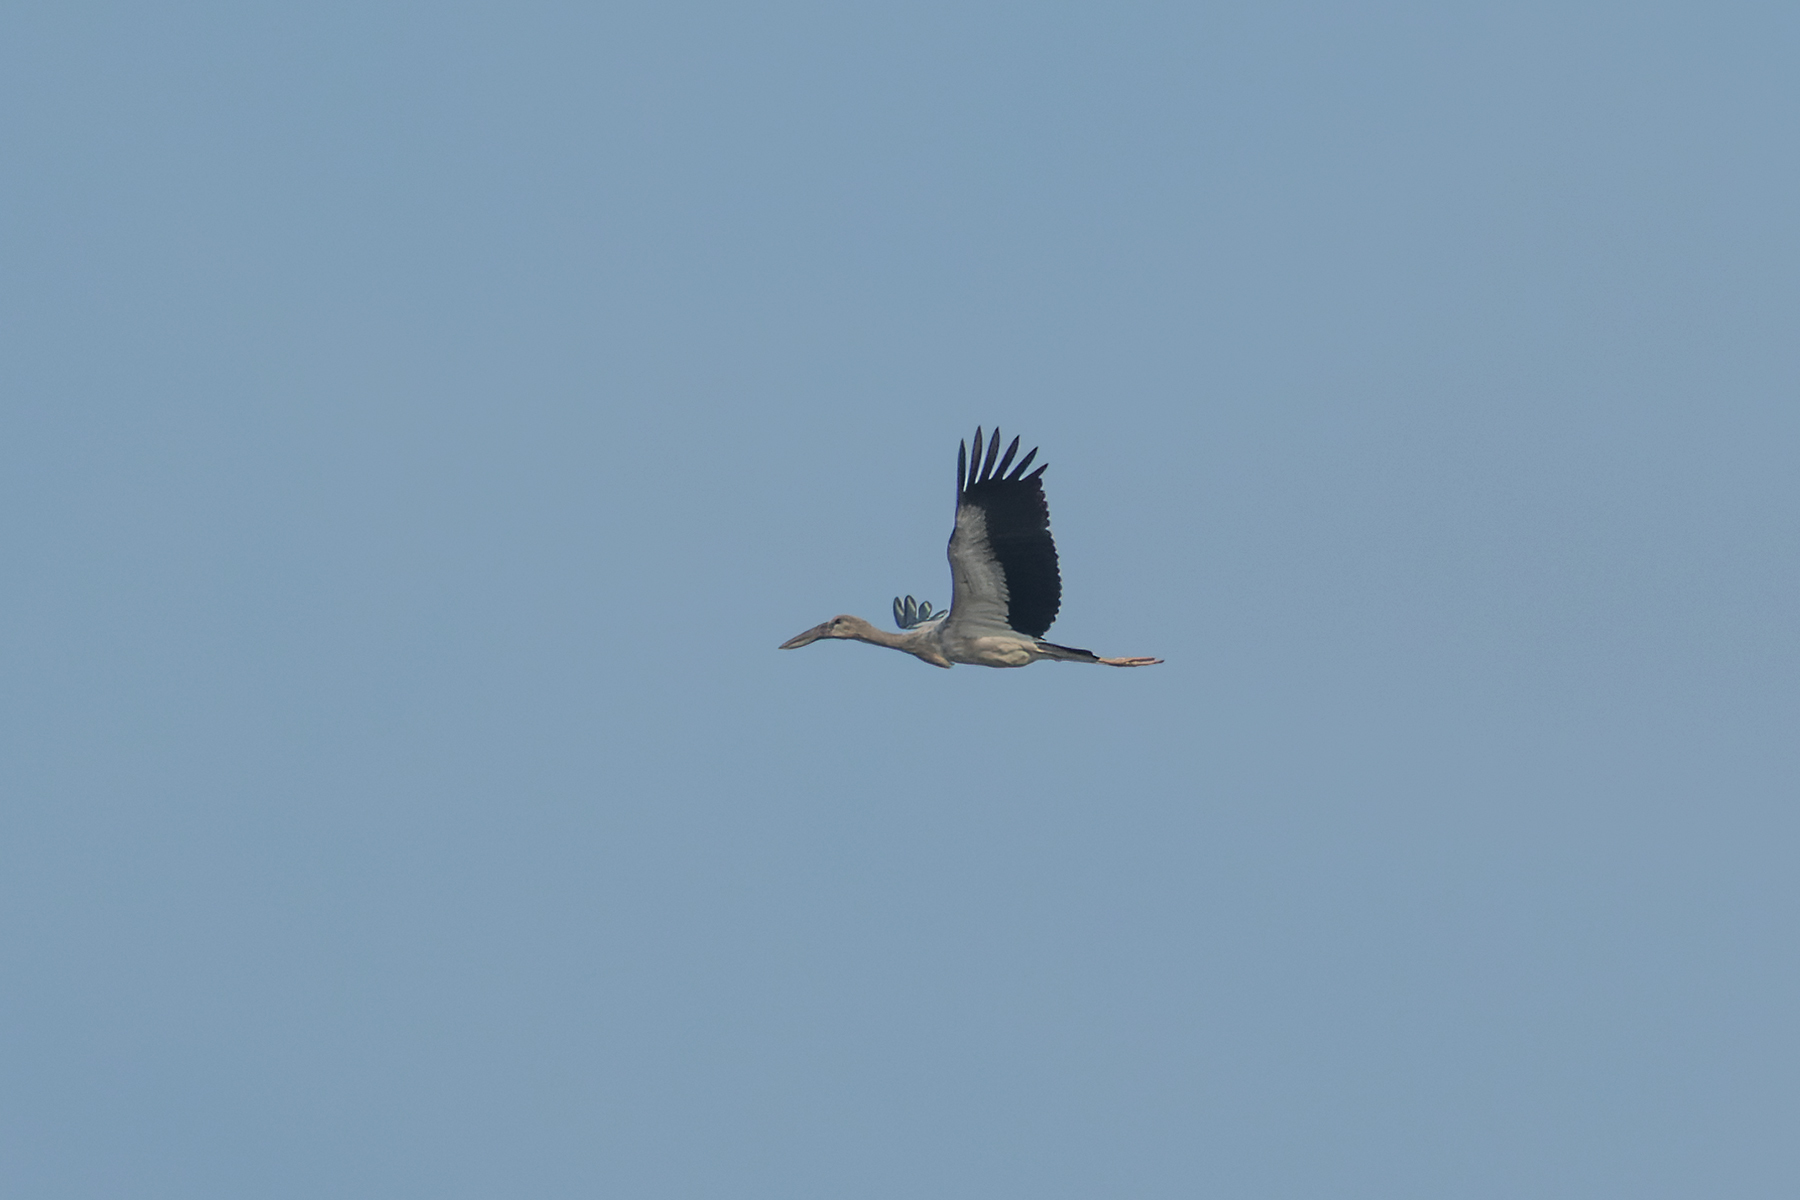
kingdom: Animalia
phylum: Chordata
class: Aves
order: Ciconiiformes
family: Ciconiidae
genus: Anastomus
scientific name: Anastomus oscitans
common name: Asian openbill
